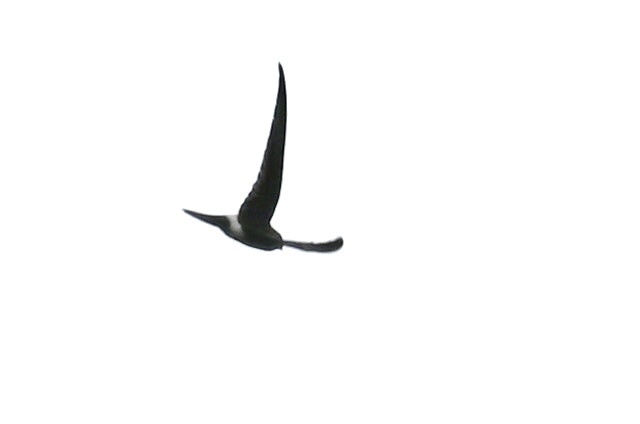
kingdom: Animalia
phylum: Chordata
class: Aves
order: Apodiformes
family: Apodidae
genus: Apus
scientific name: Apus pacificus
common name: Pacific swift
